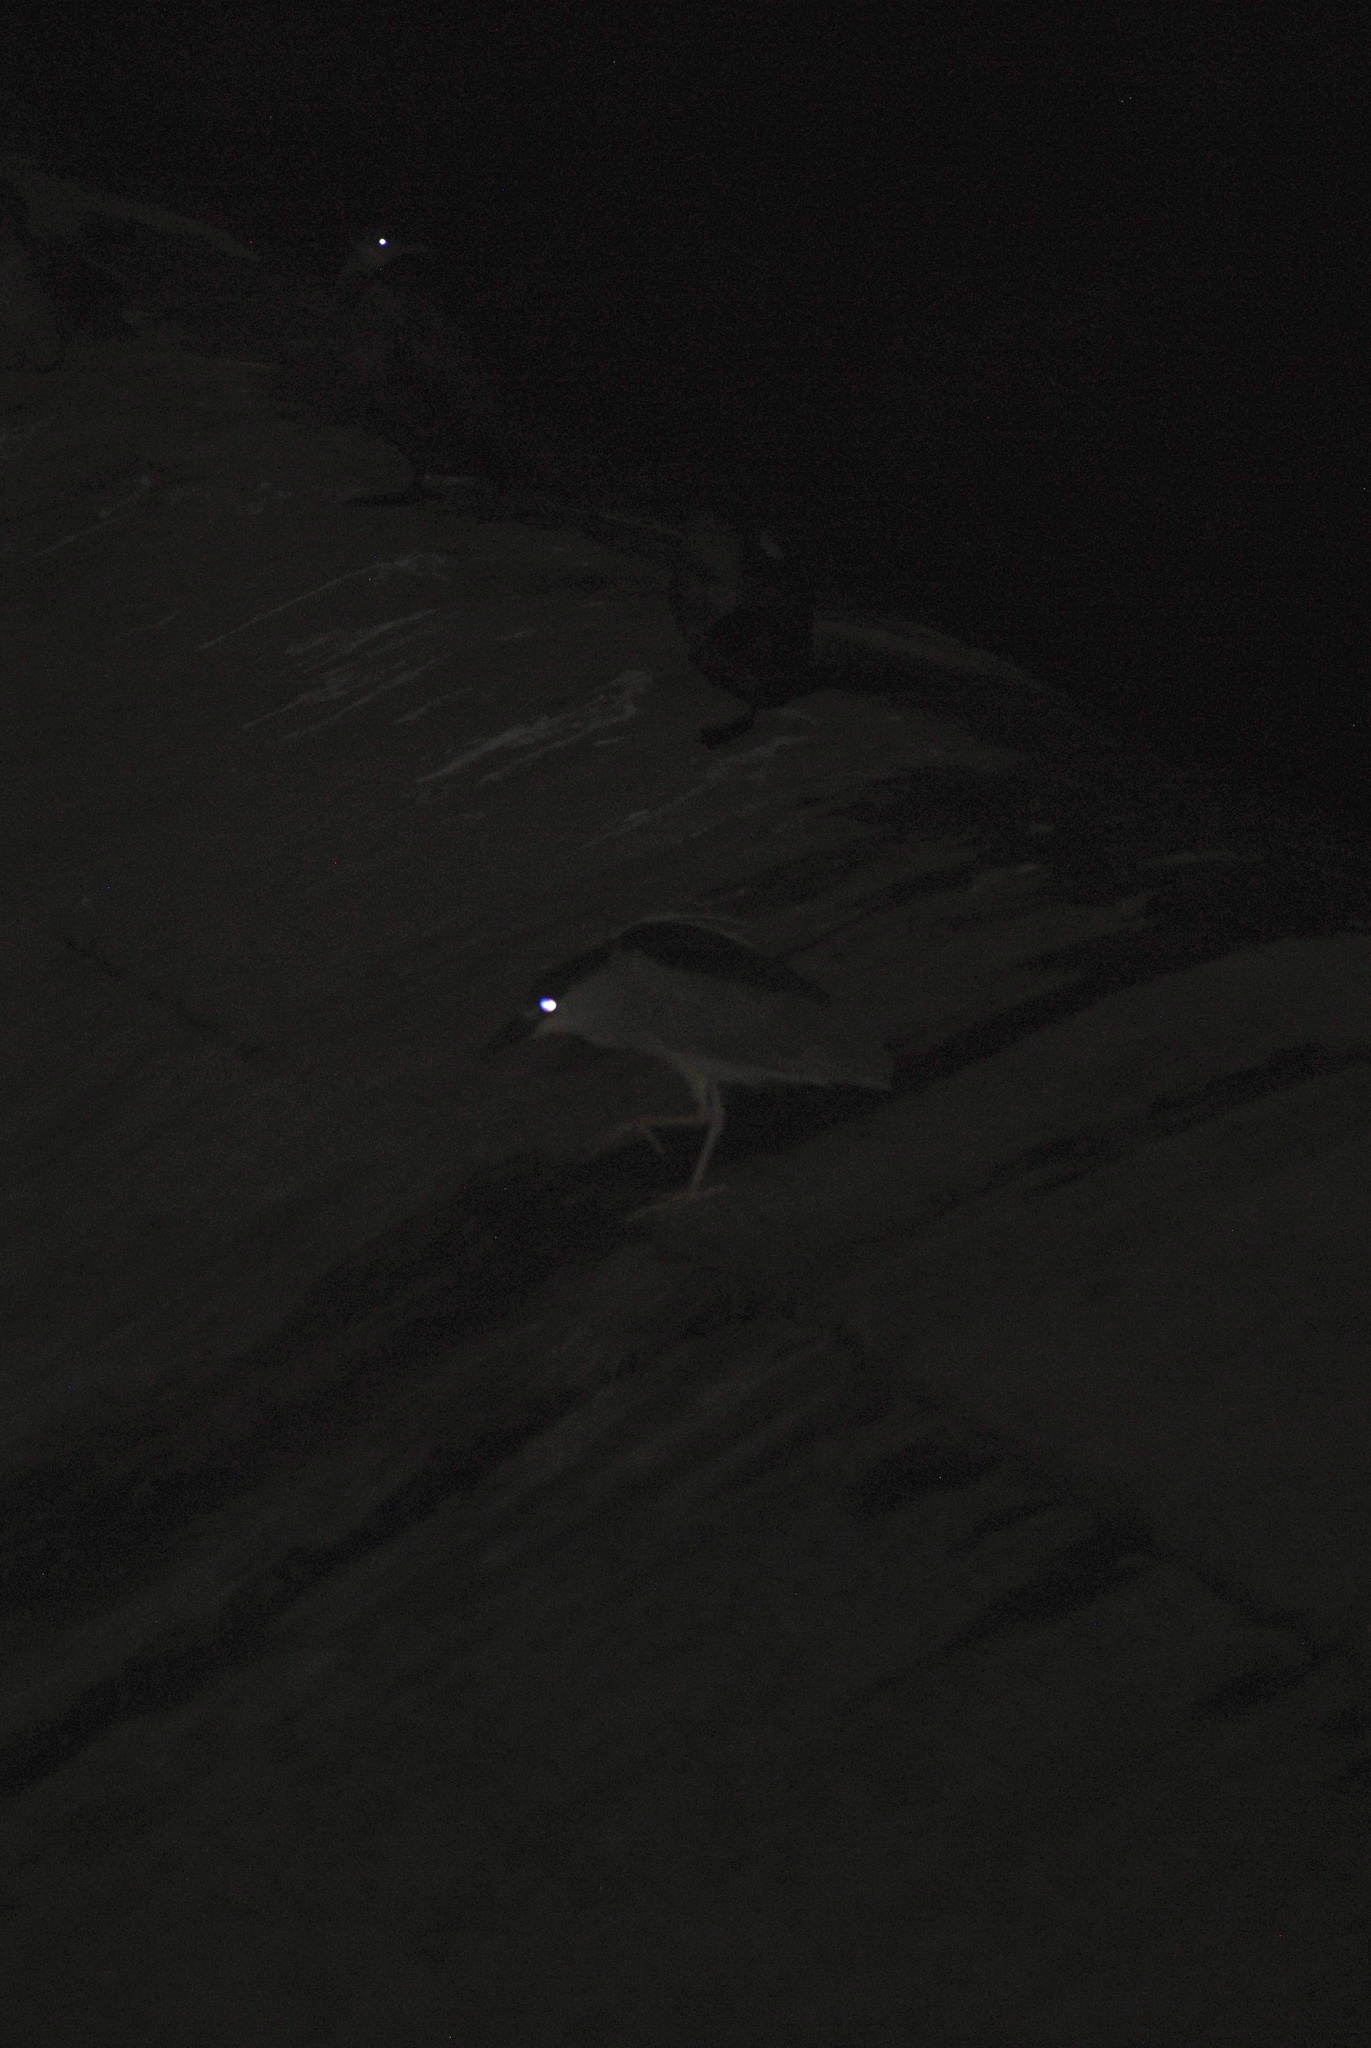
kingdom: Animalia
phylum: Chordata
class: Aves
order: Pelecaniformes
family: Ardeidae
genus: Nycticorax
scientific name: Nycticorax nycticorax
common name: Black-crowned night heron
